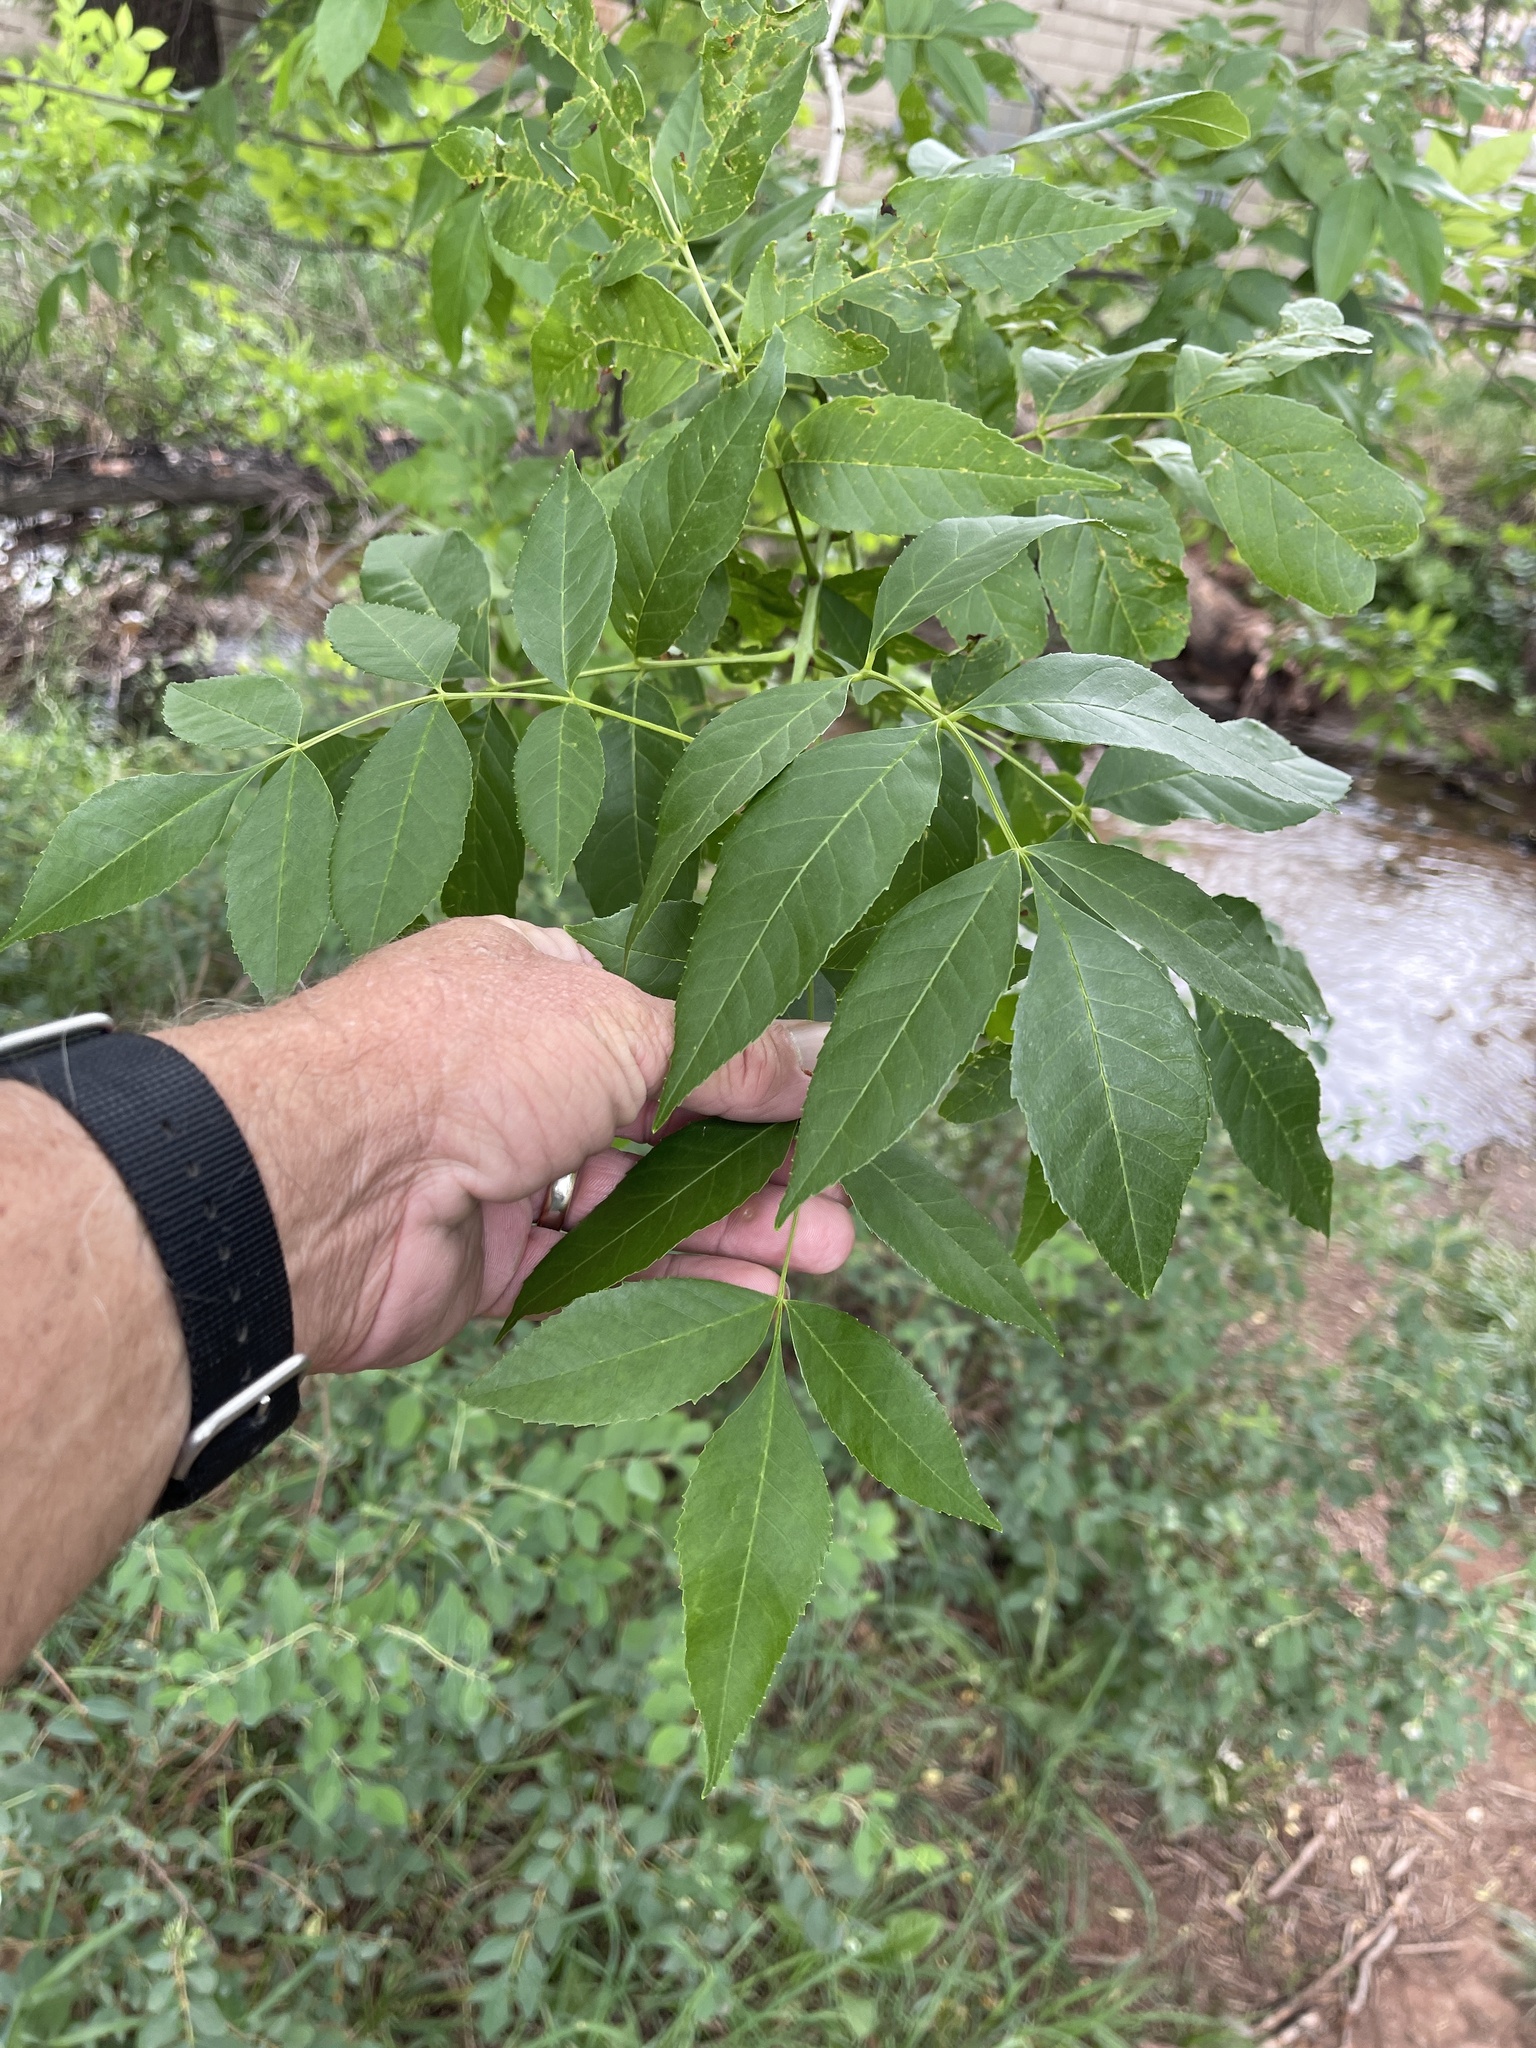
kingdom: Plantae
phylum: Tracheophyta
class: Magnoliopsida
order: Lamiales
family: Oleaceae
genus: Fraxinus
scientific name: Fraxinus pennsylvanica
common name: Green ash
